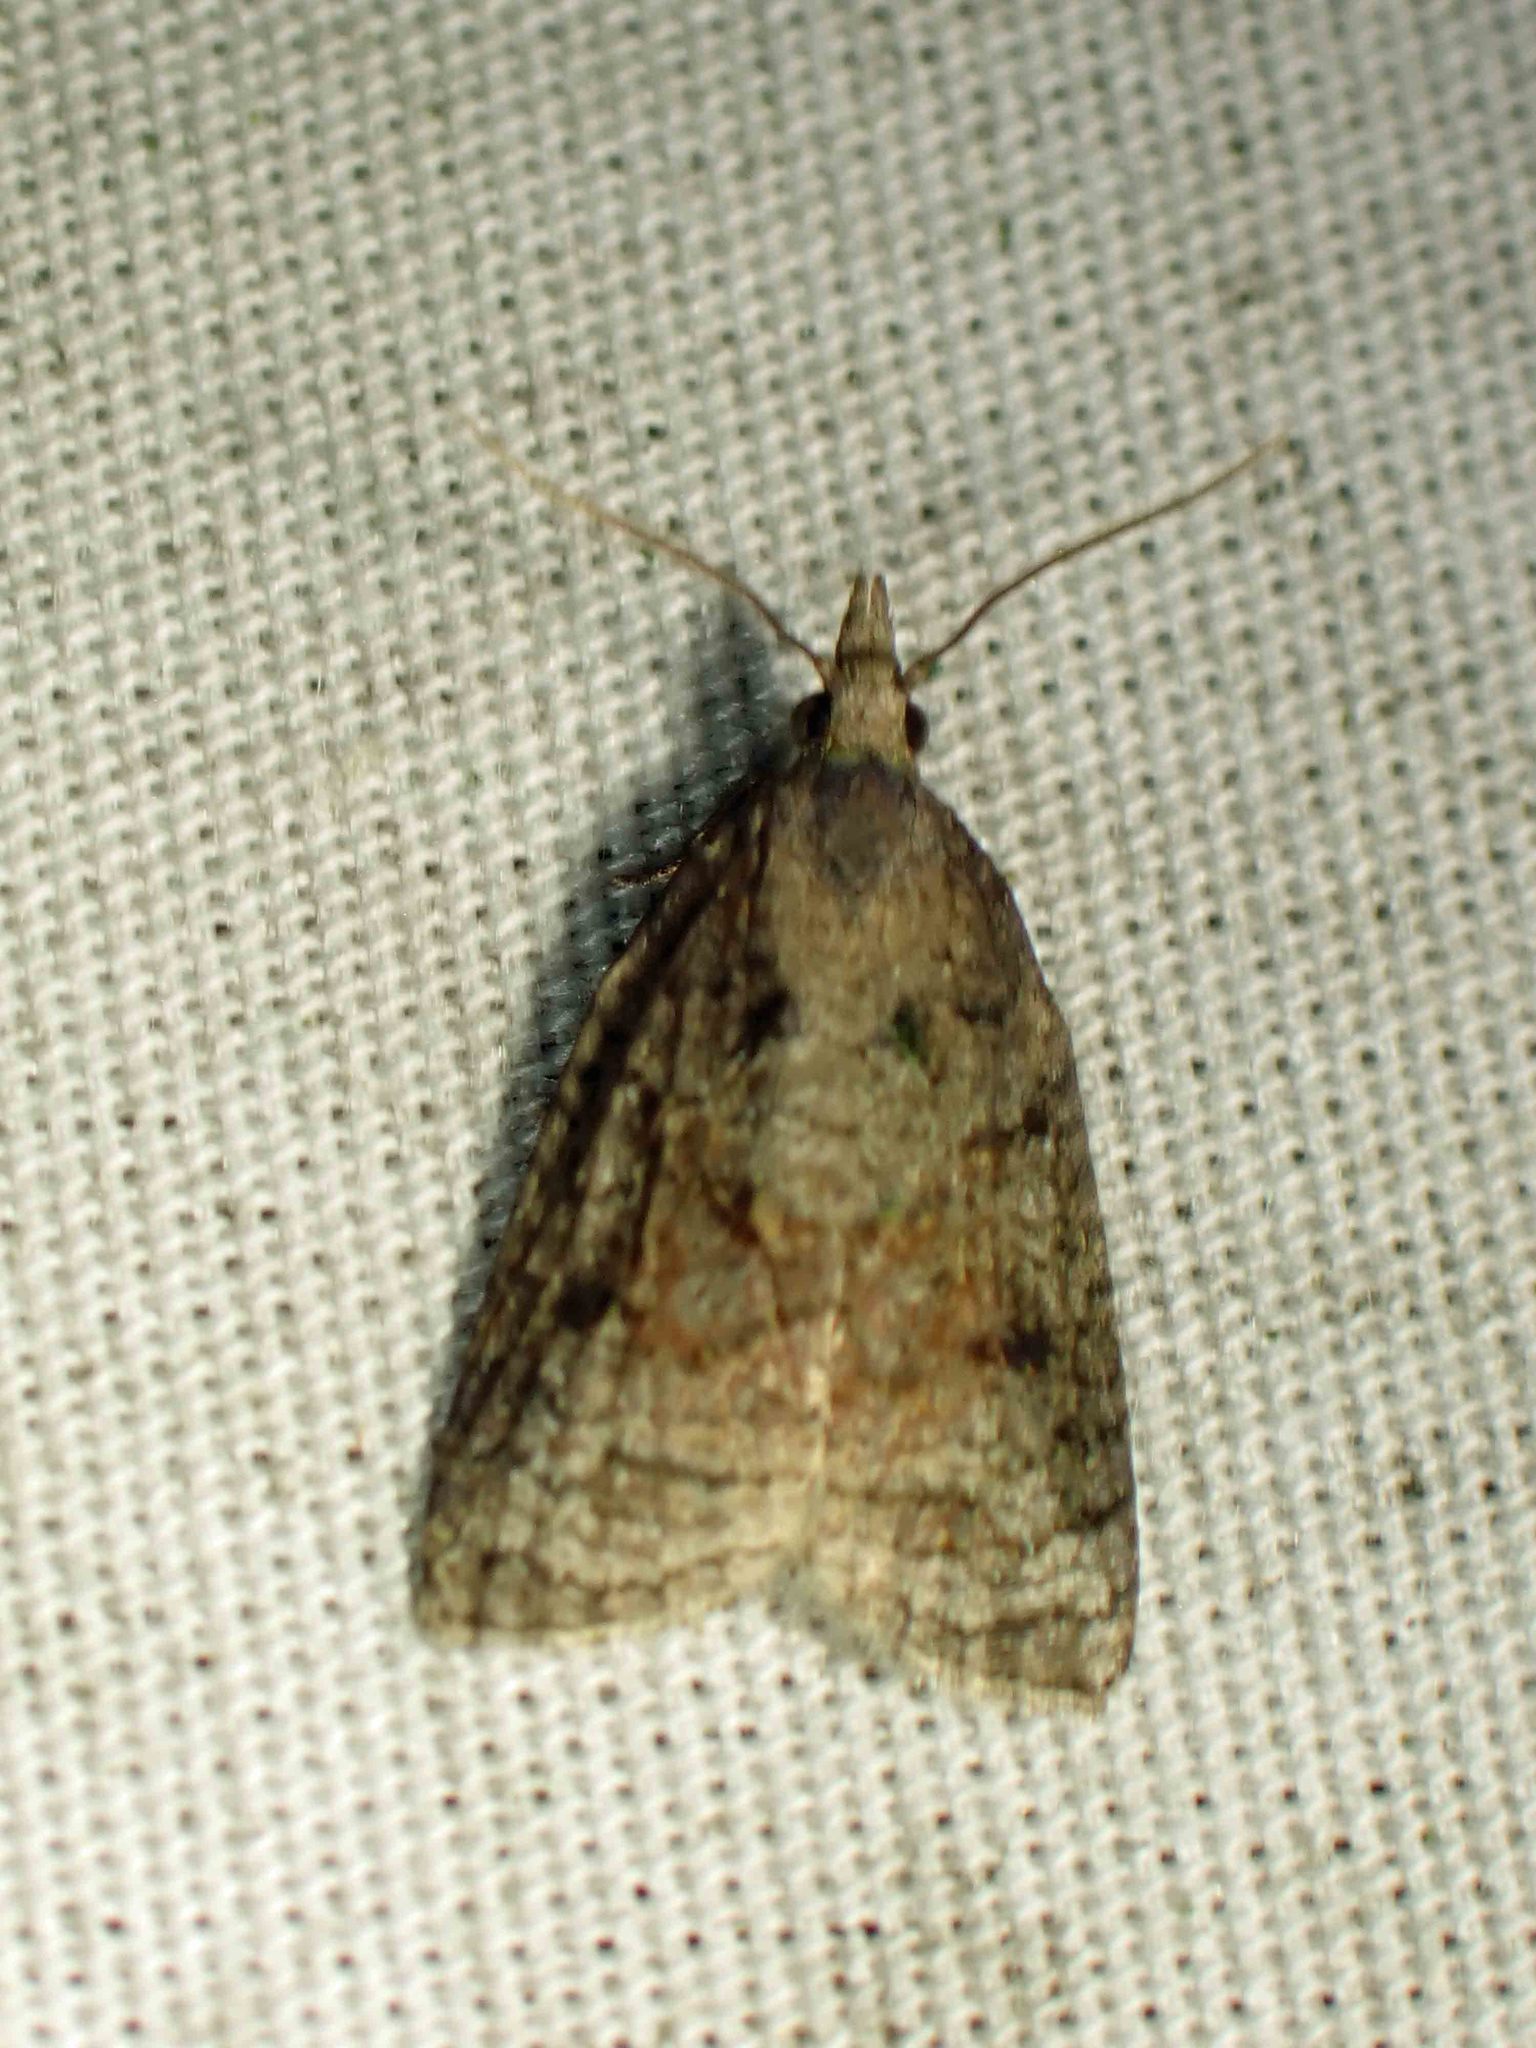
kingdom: Animalia
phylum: Arthropoda
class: Insecta
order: Lepidoptera
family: Tortricidae
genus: Platynota
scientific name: Platynota idaeusalis
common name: Tufted apple bud moth
